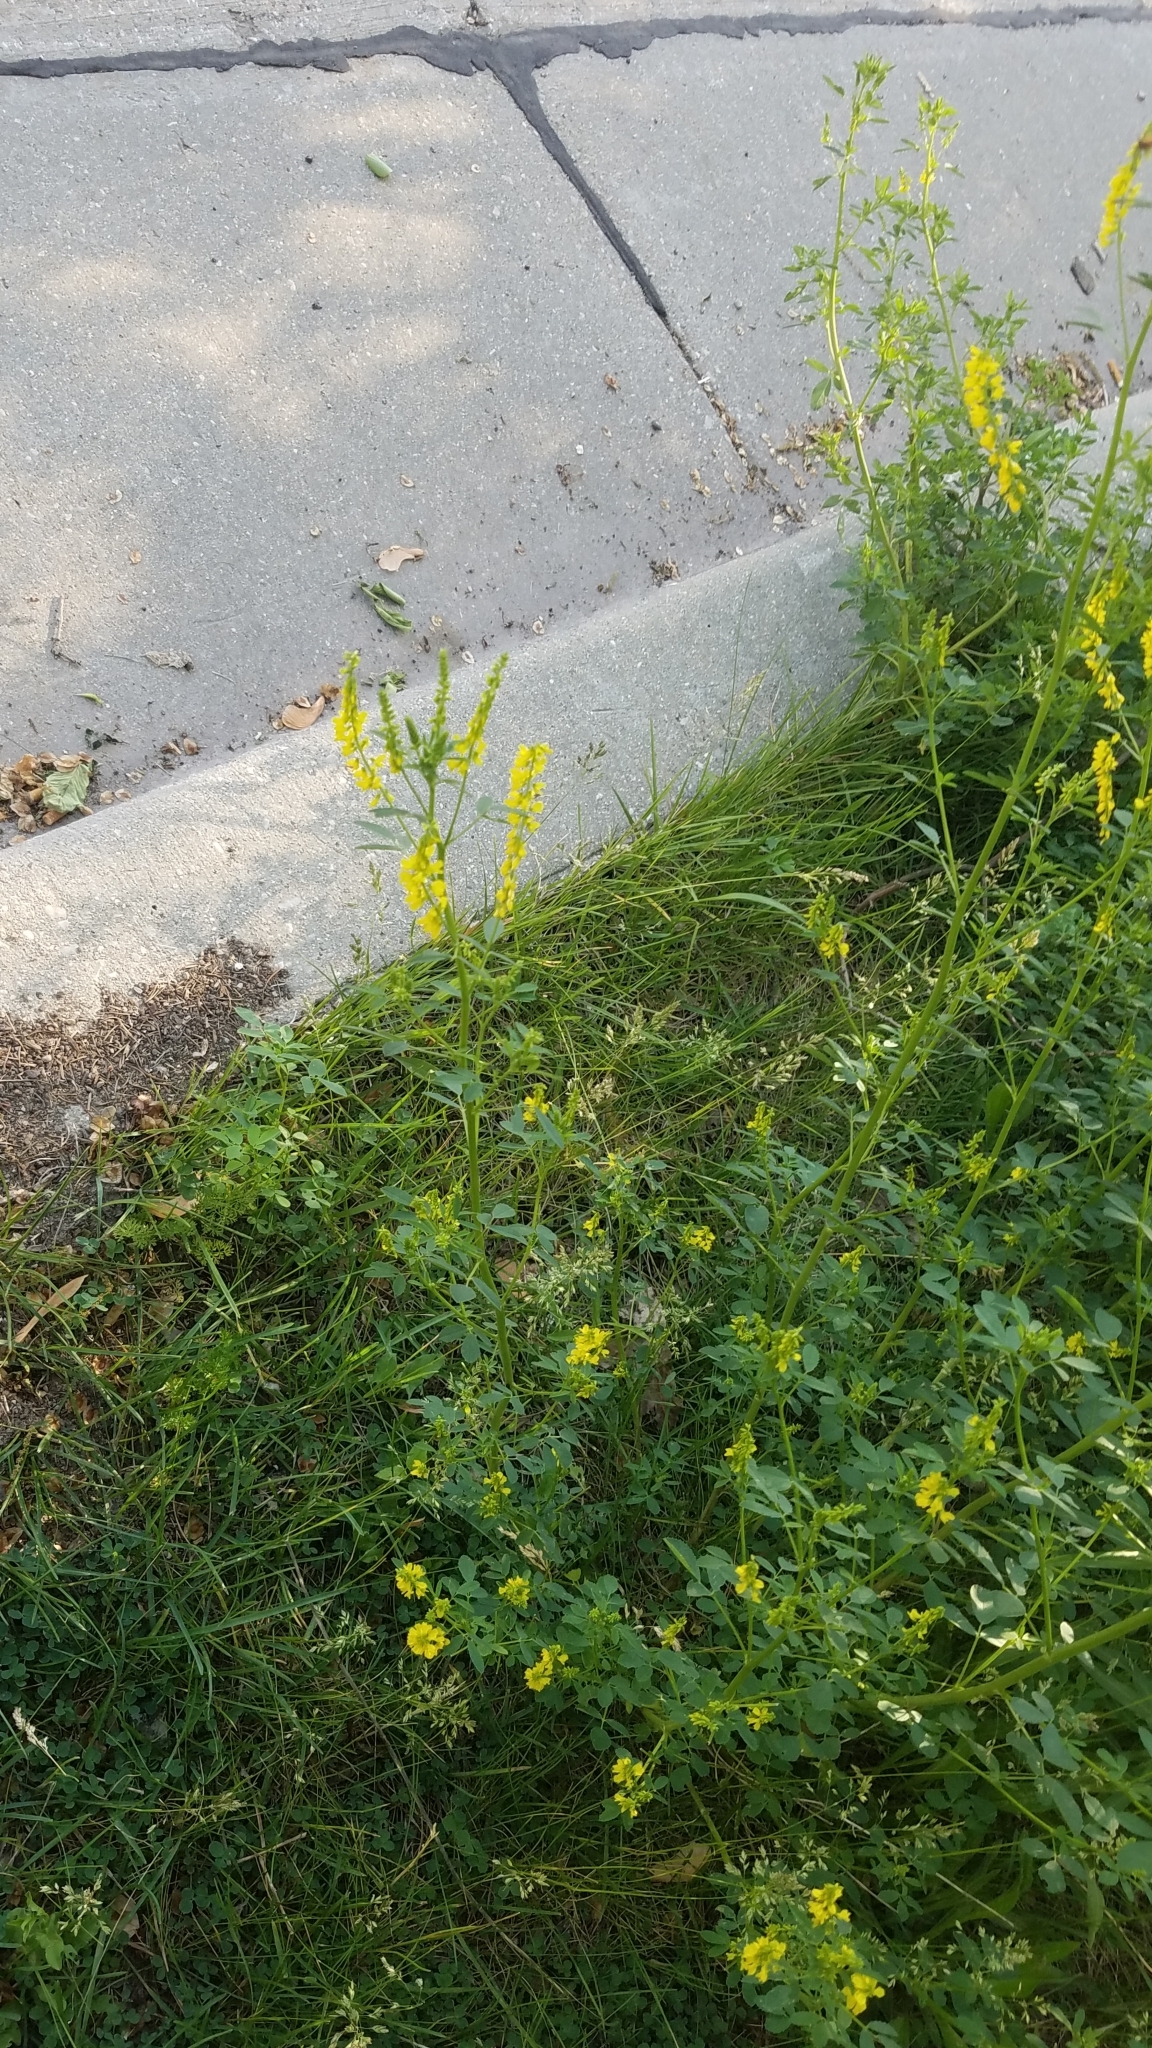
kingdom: Plantae
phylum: Tracheophyta
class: Magnoliopsida
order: Fabales
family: Fabaceae
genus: Melilotus
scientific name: Melilotus officinalis
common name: Sweetclover
